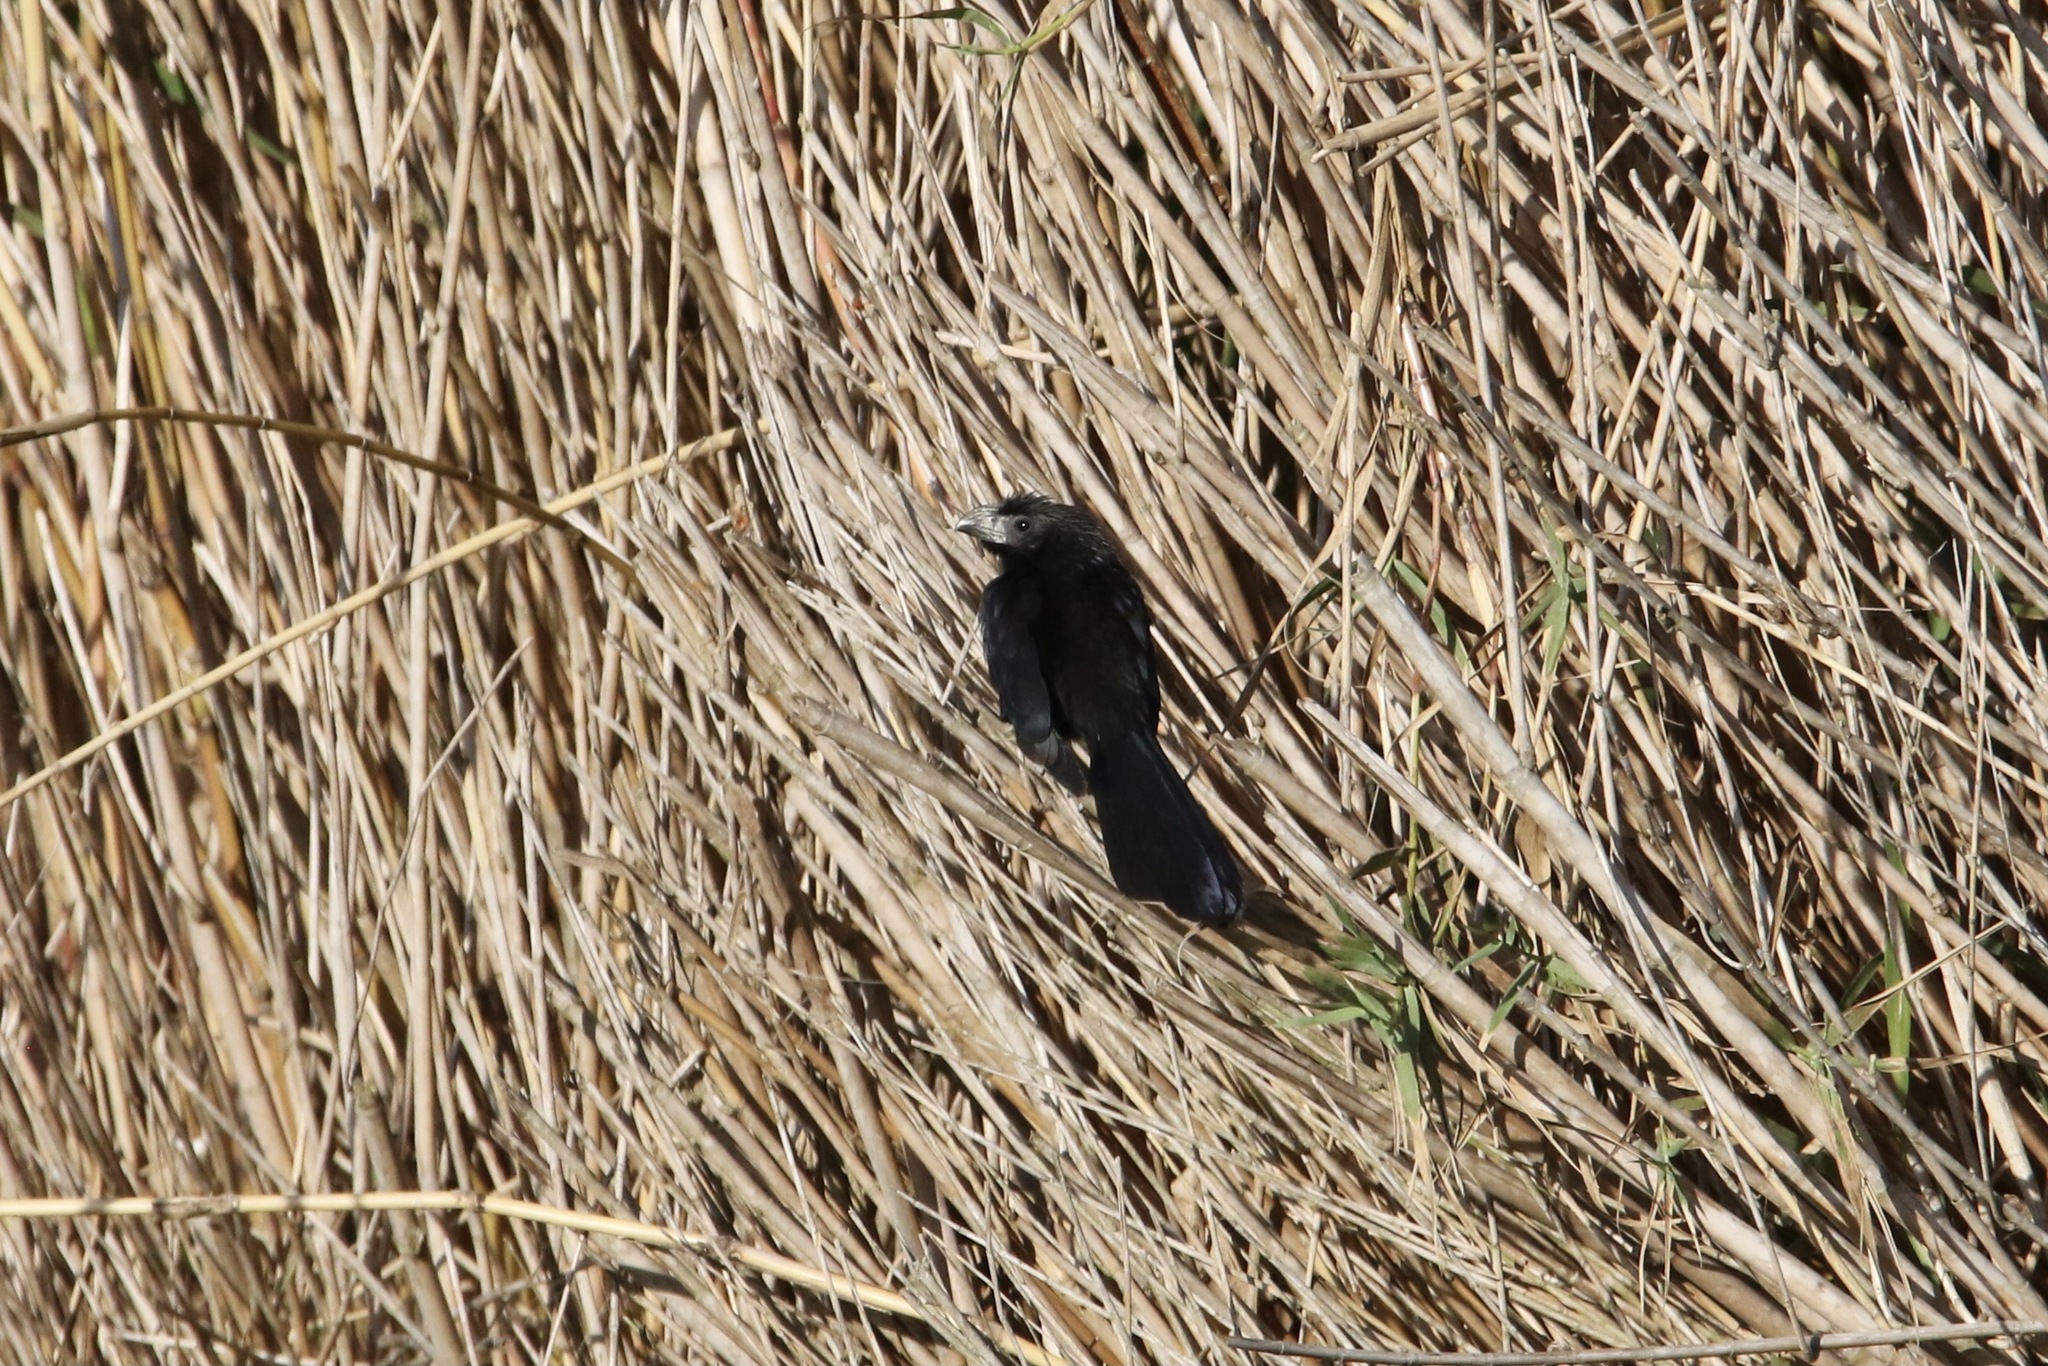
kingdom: Animalia
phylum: Chordata
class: Aves
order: Cuculiformes
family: Cuculidae
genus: Crotophaga
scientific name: Crotophaga sulcirostris
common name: Groove-billed ani
